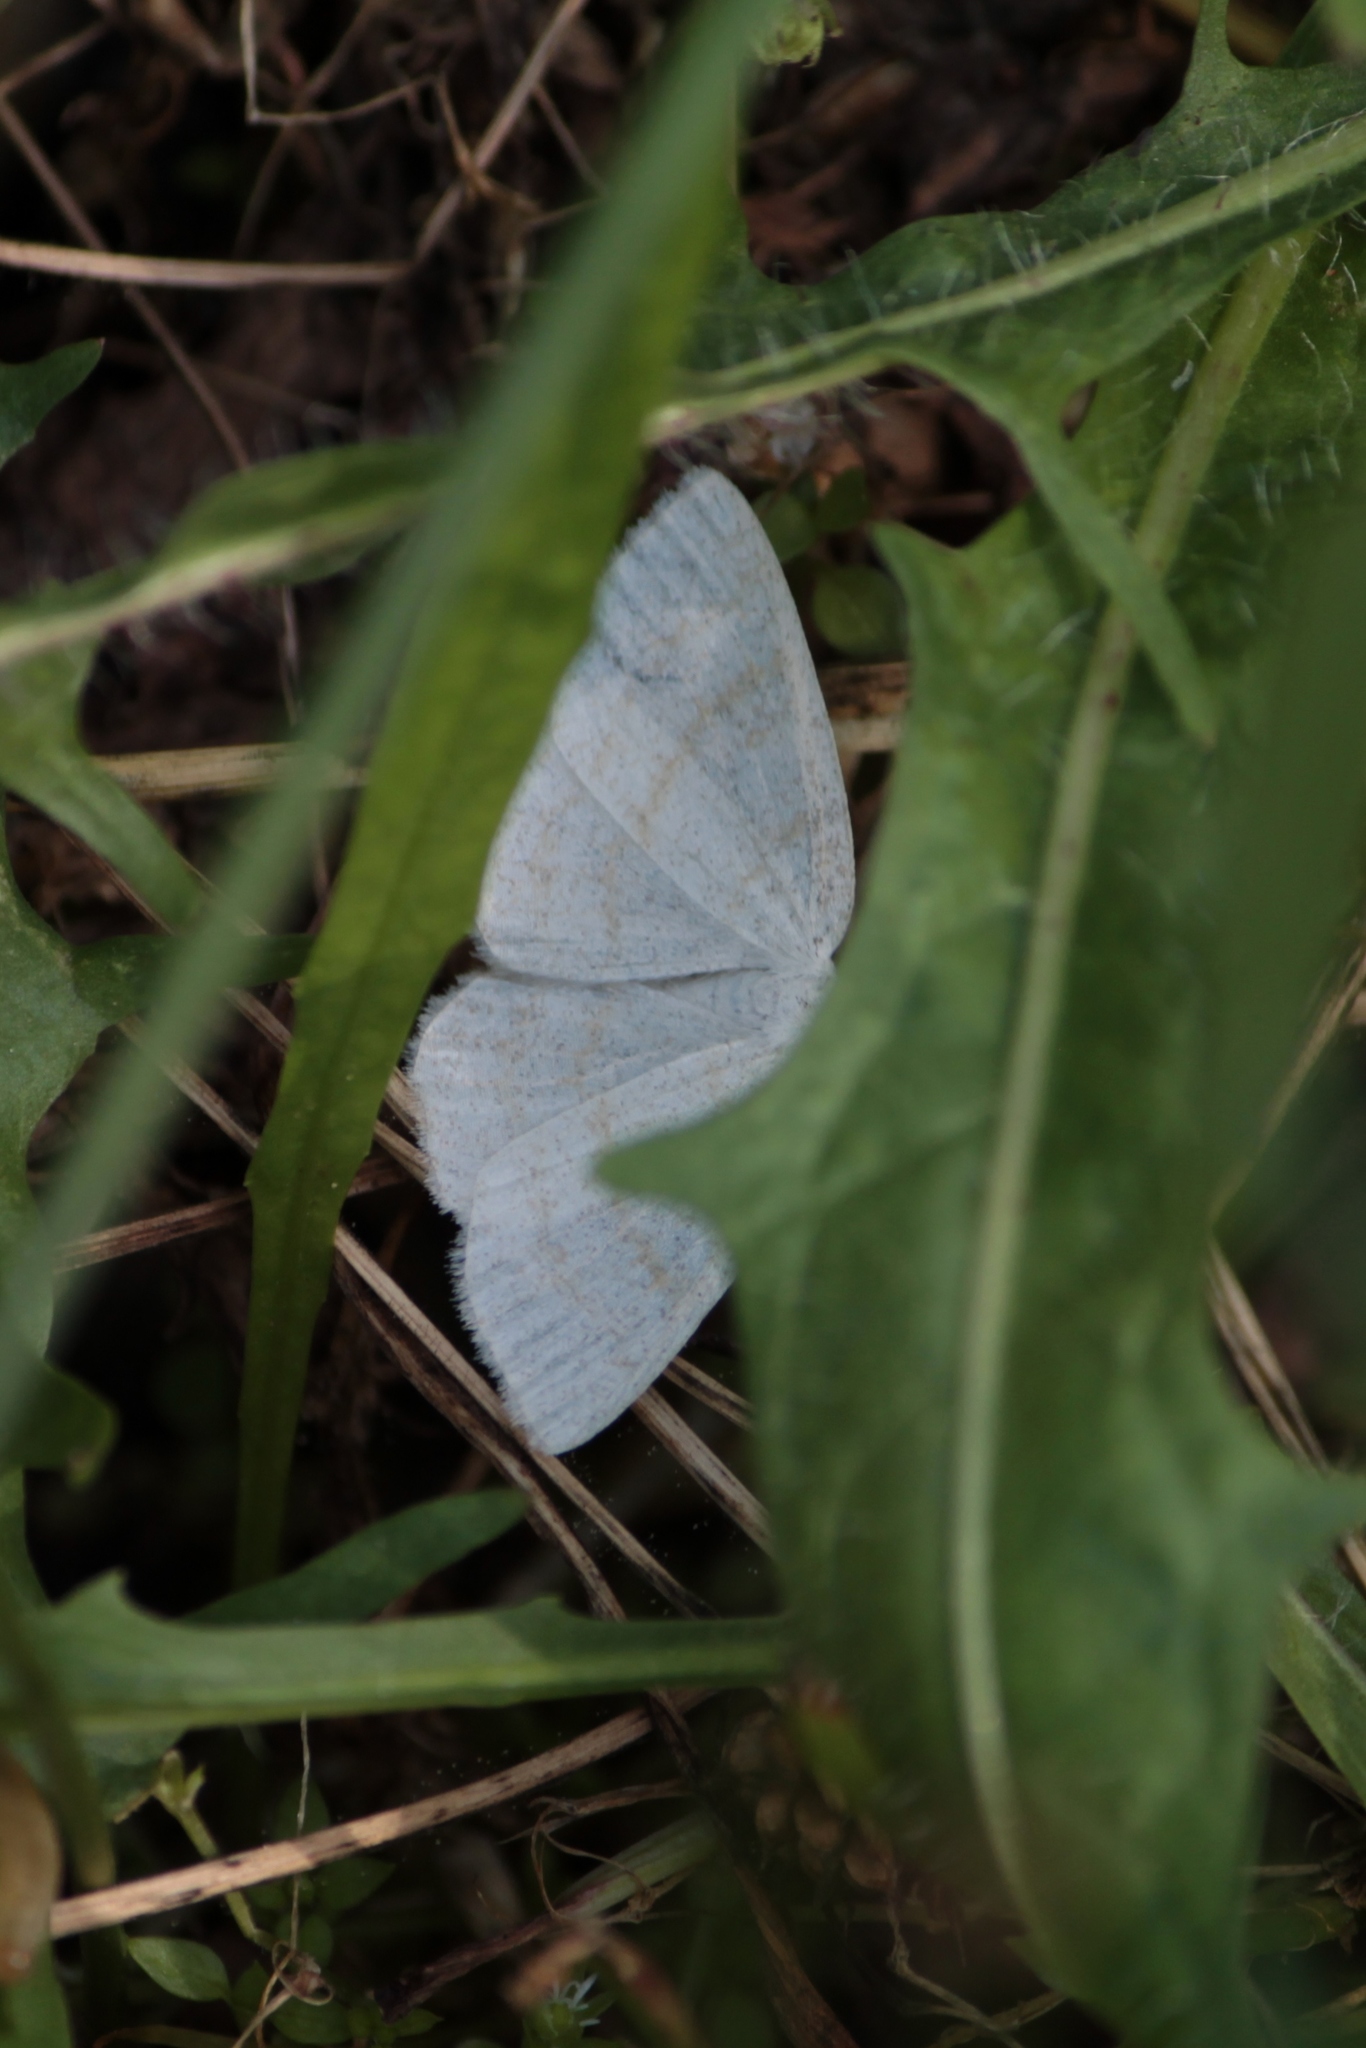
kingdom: Animalia
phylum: Arthropoda
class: Insecta
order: Lepidoptera
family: Geometridae
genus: Cabera
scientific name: Cabera exanthemata
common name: Common wave
